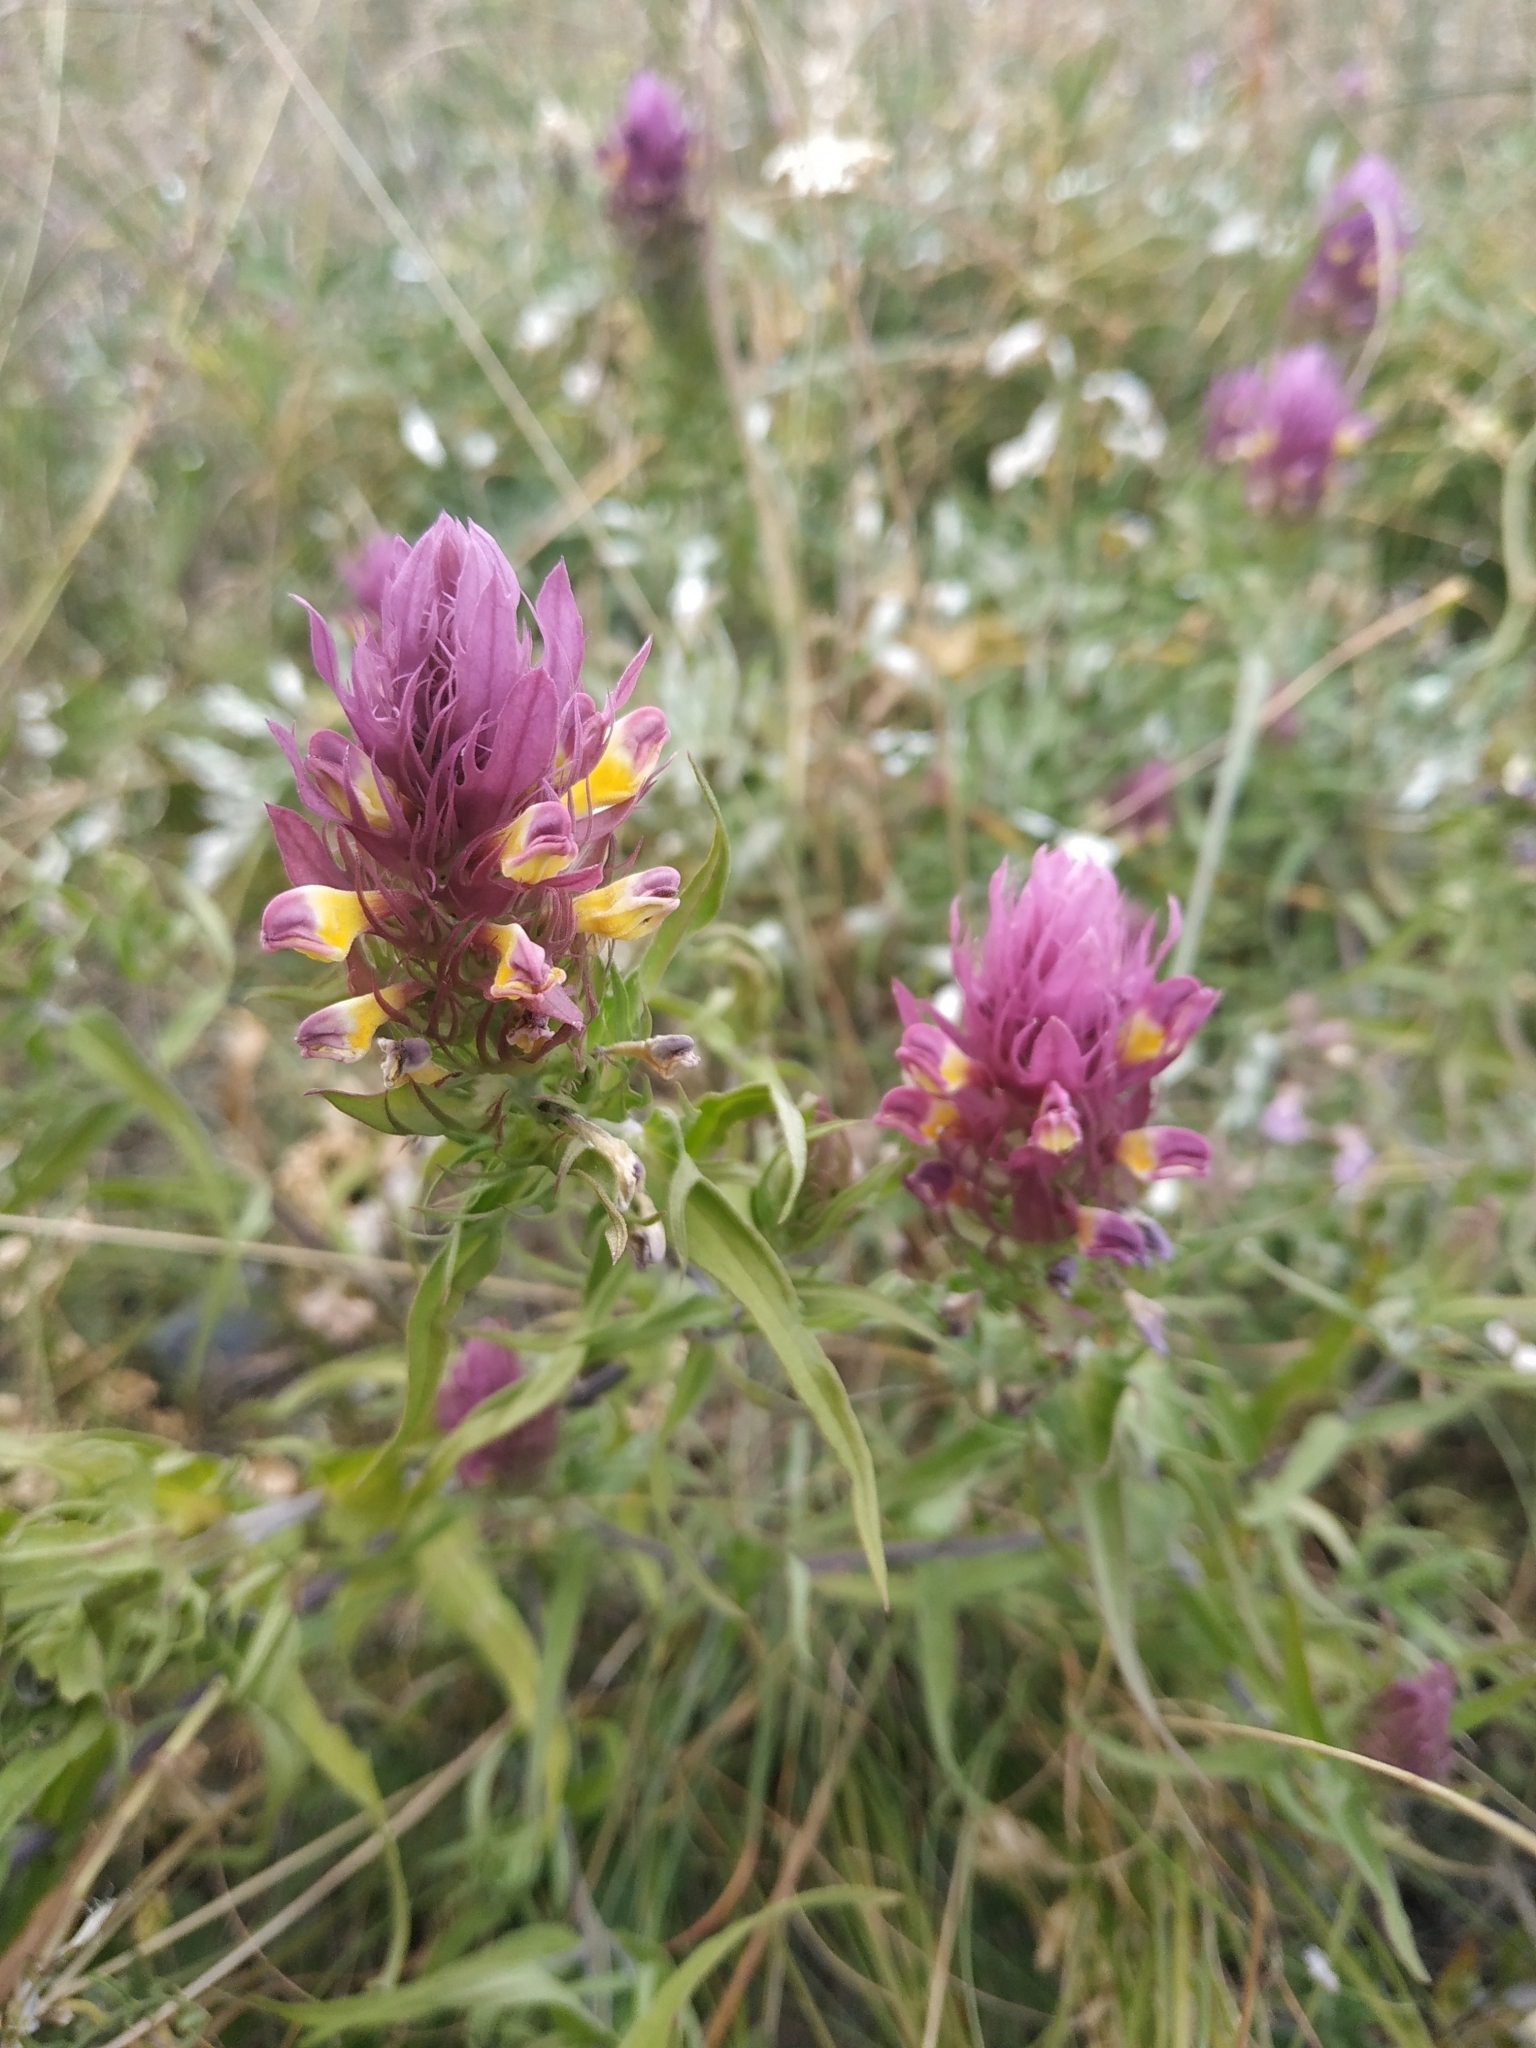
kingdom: Plantae
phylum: Tracheophyta
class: Magnoliopsida
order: Lamiales
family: Orobanchaceae
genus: Melampyrum
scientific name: Melampyrum arvense
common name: Field cow-wheat
